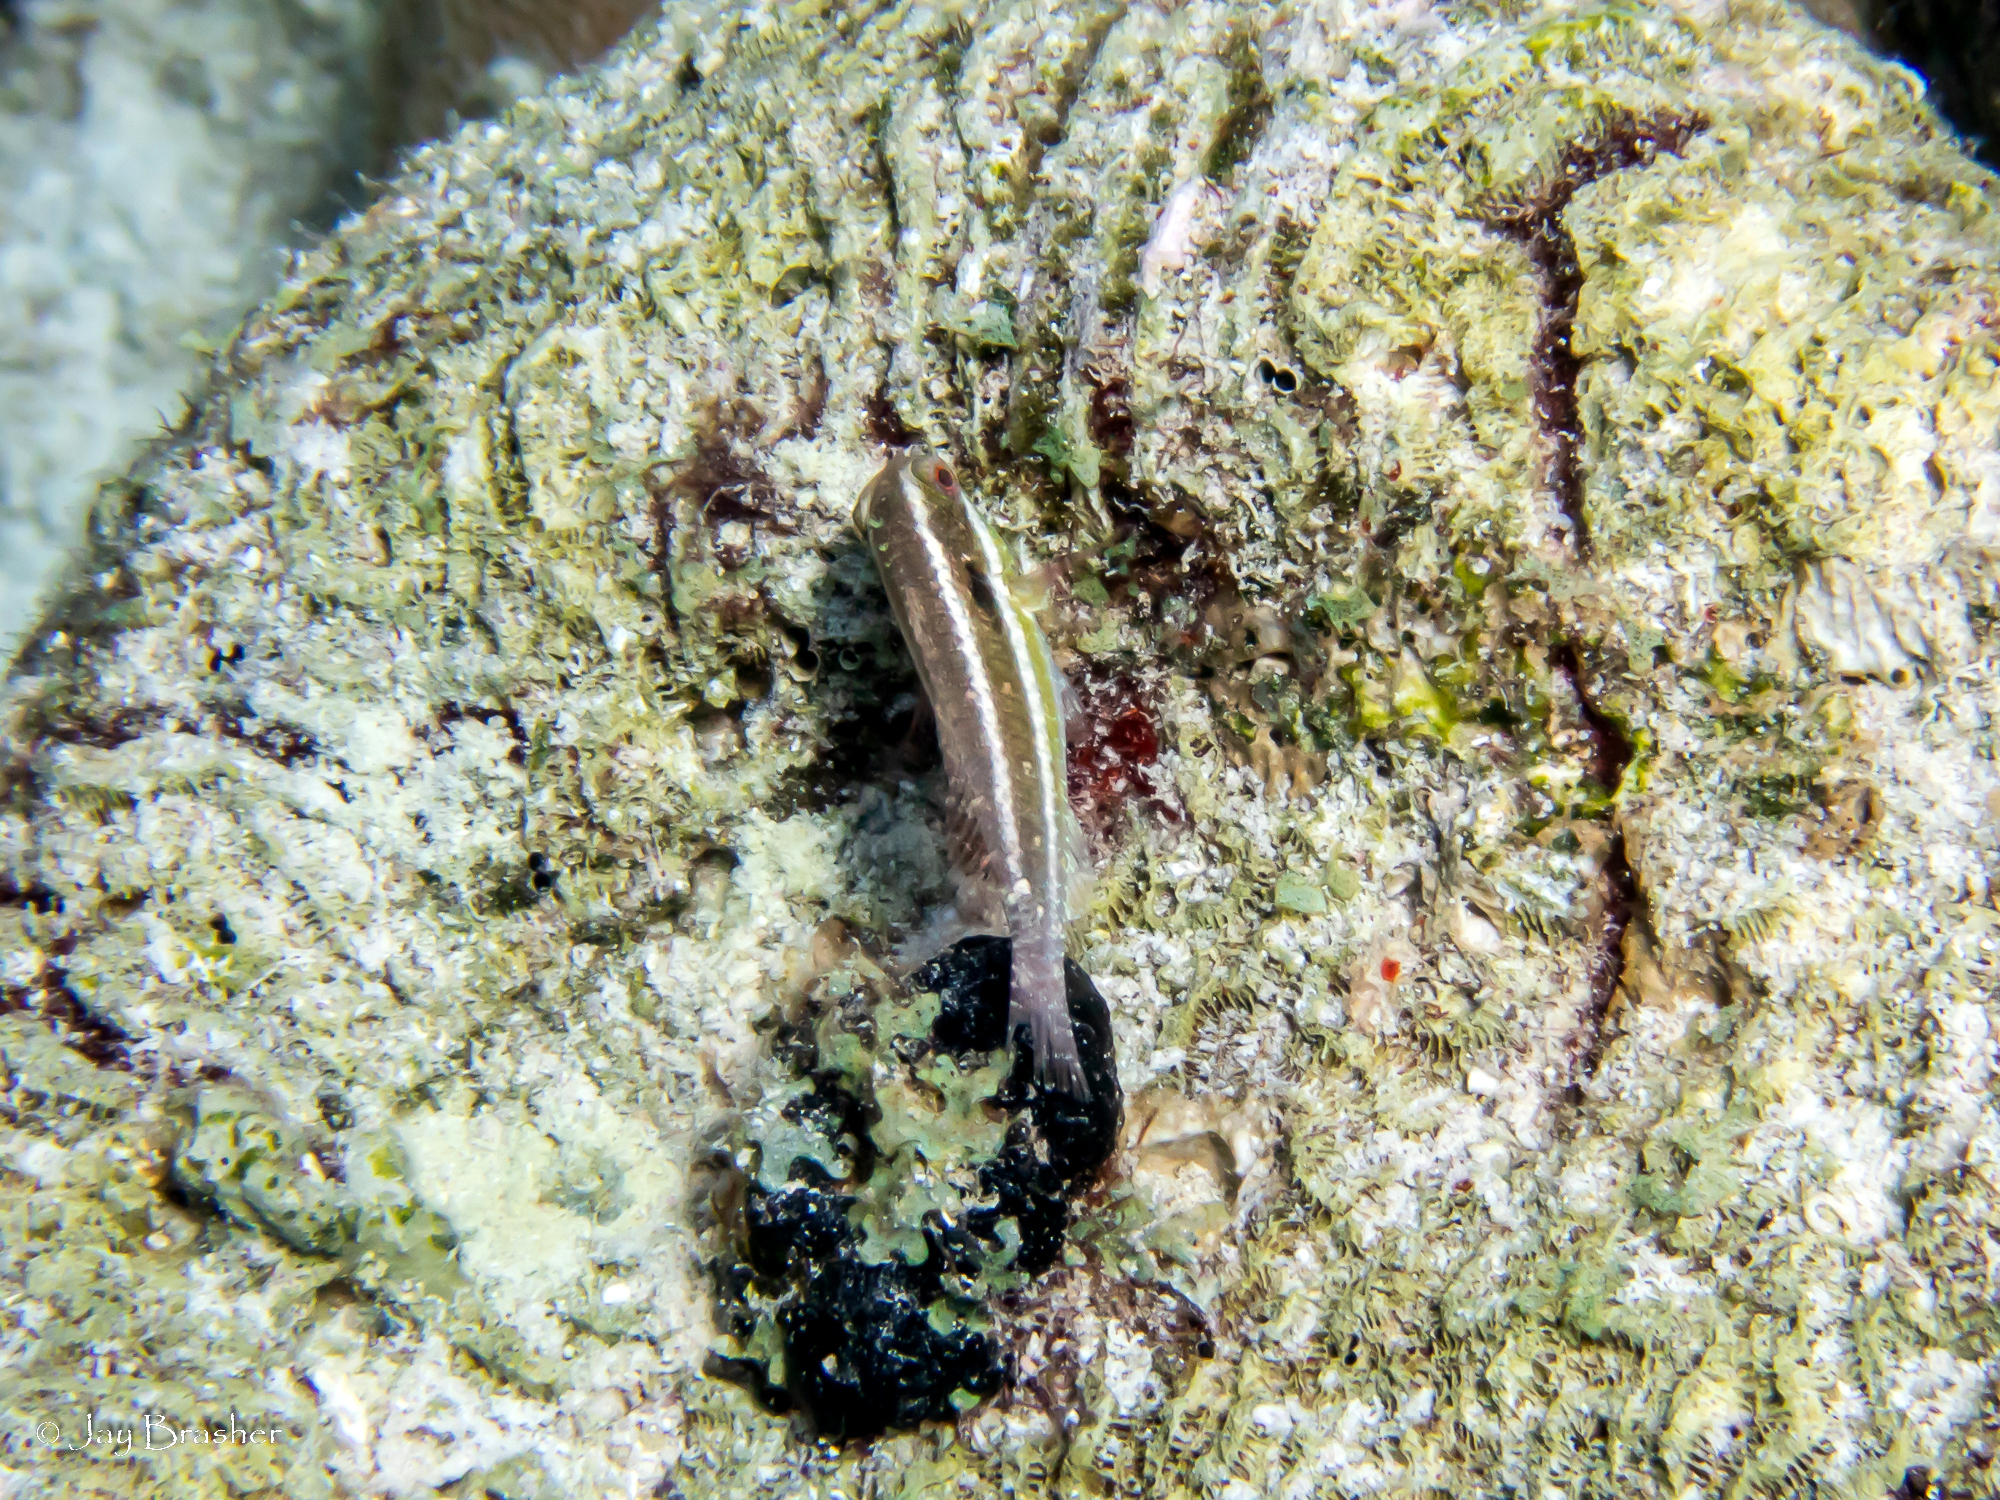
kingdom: Animalia
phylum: Chordata
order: Perciformes
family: Scaridae
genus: Sparisoma
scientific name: Sparisoma aurofrenatum
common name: Redband parrotfish
